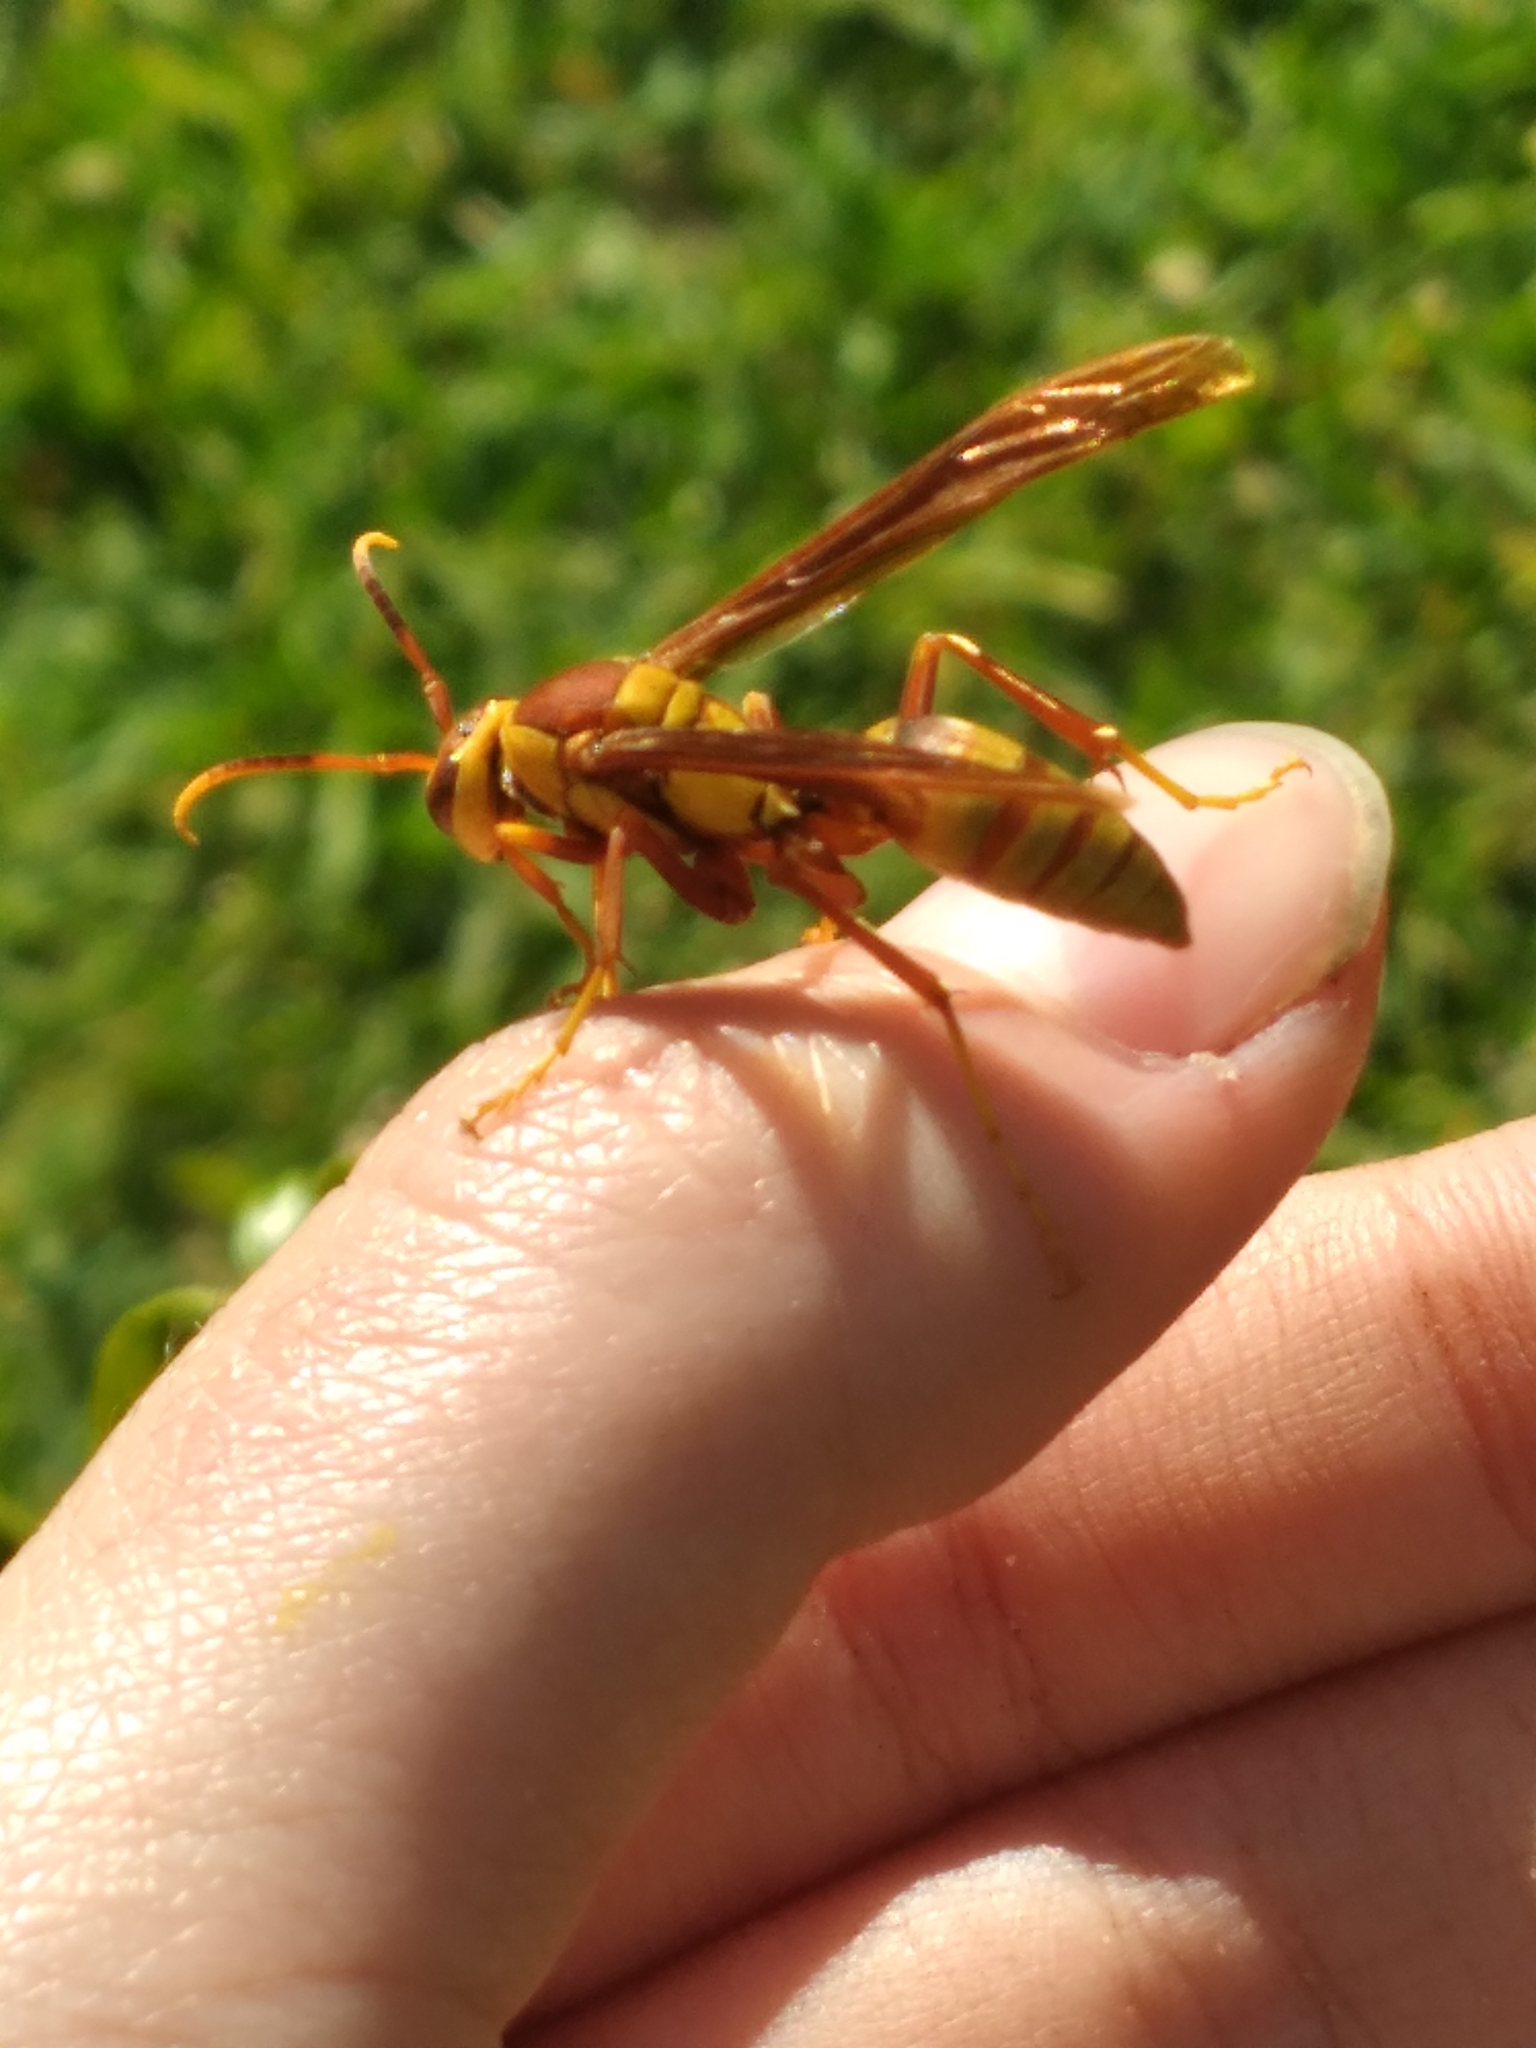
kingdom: Animalia
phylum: Arthropoda
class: Insecta
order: Hymenoptera
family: Eumenidae
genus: Polistes
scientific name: Polistes major
